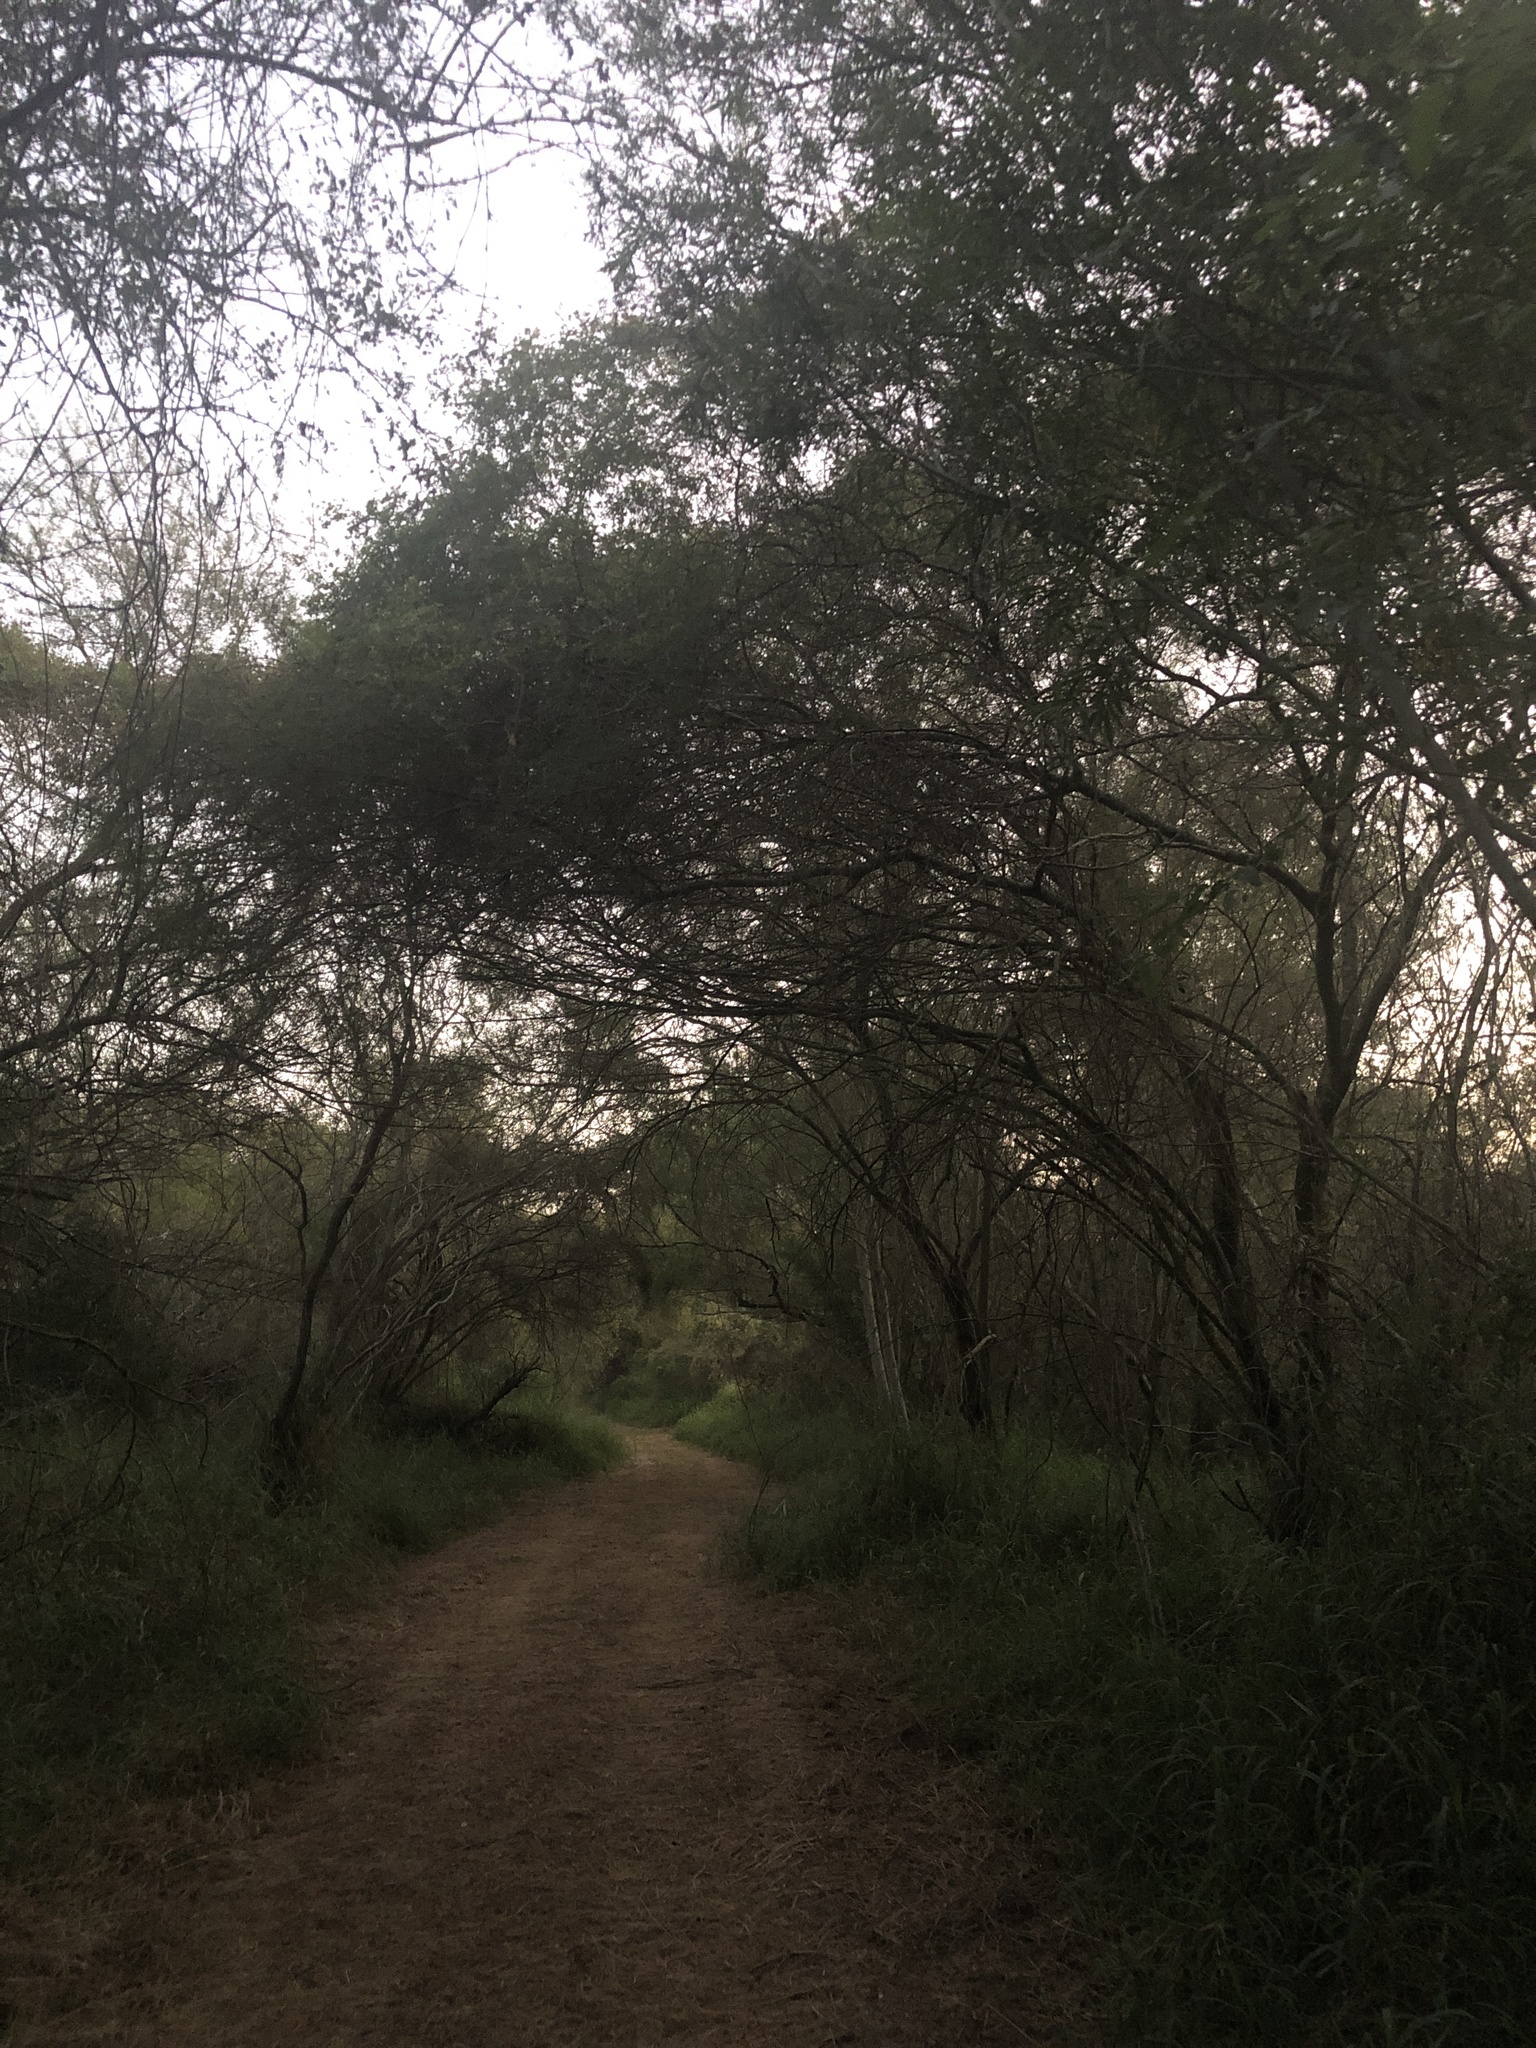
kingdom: Animalia
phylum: Arthropoda
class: Insecta
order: Hemiptera
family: Cicadidae
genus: Quesada
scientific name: Quesada gigas
